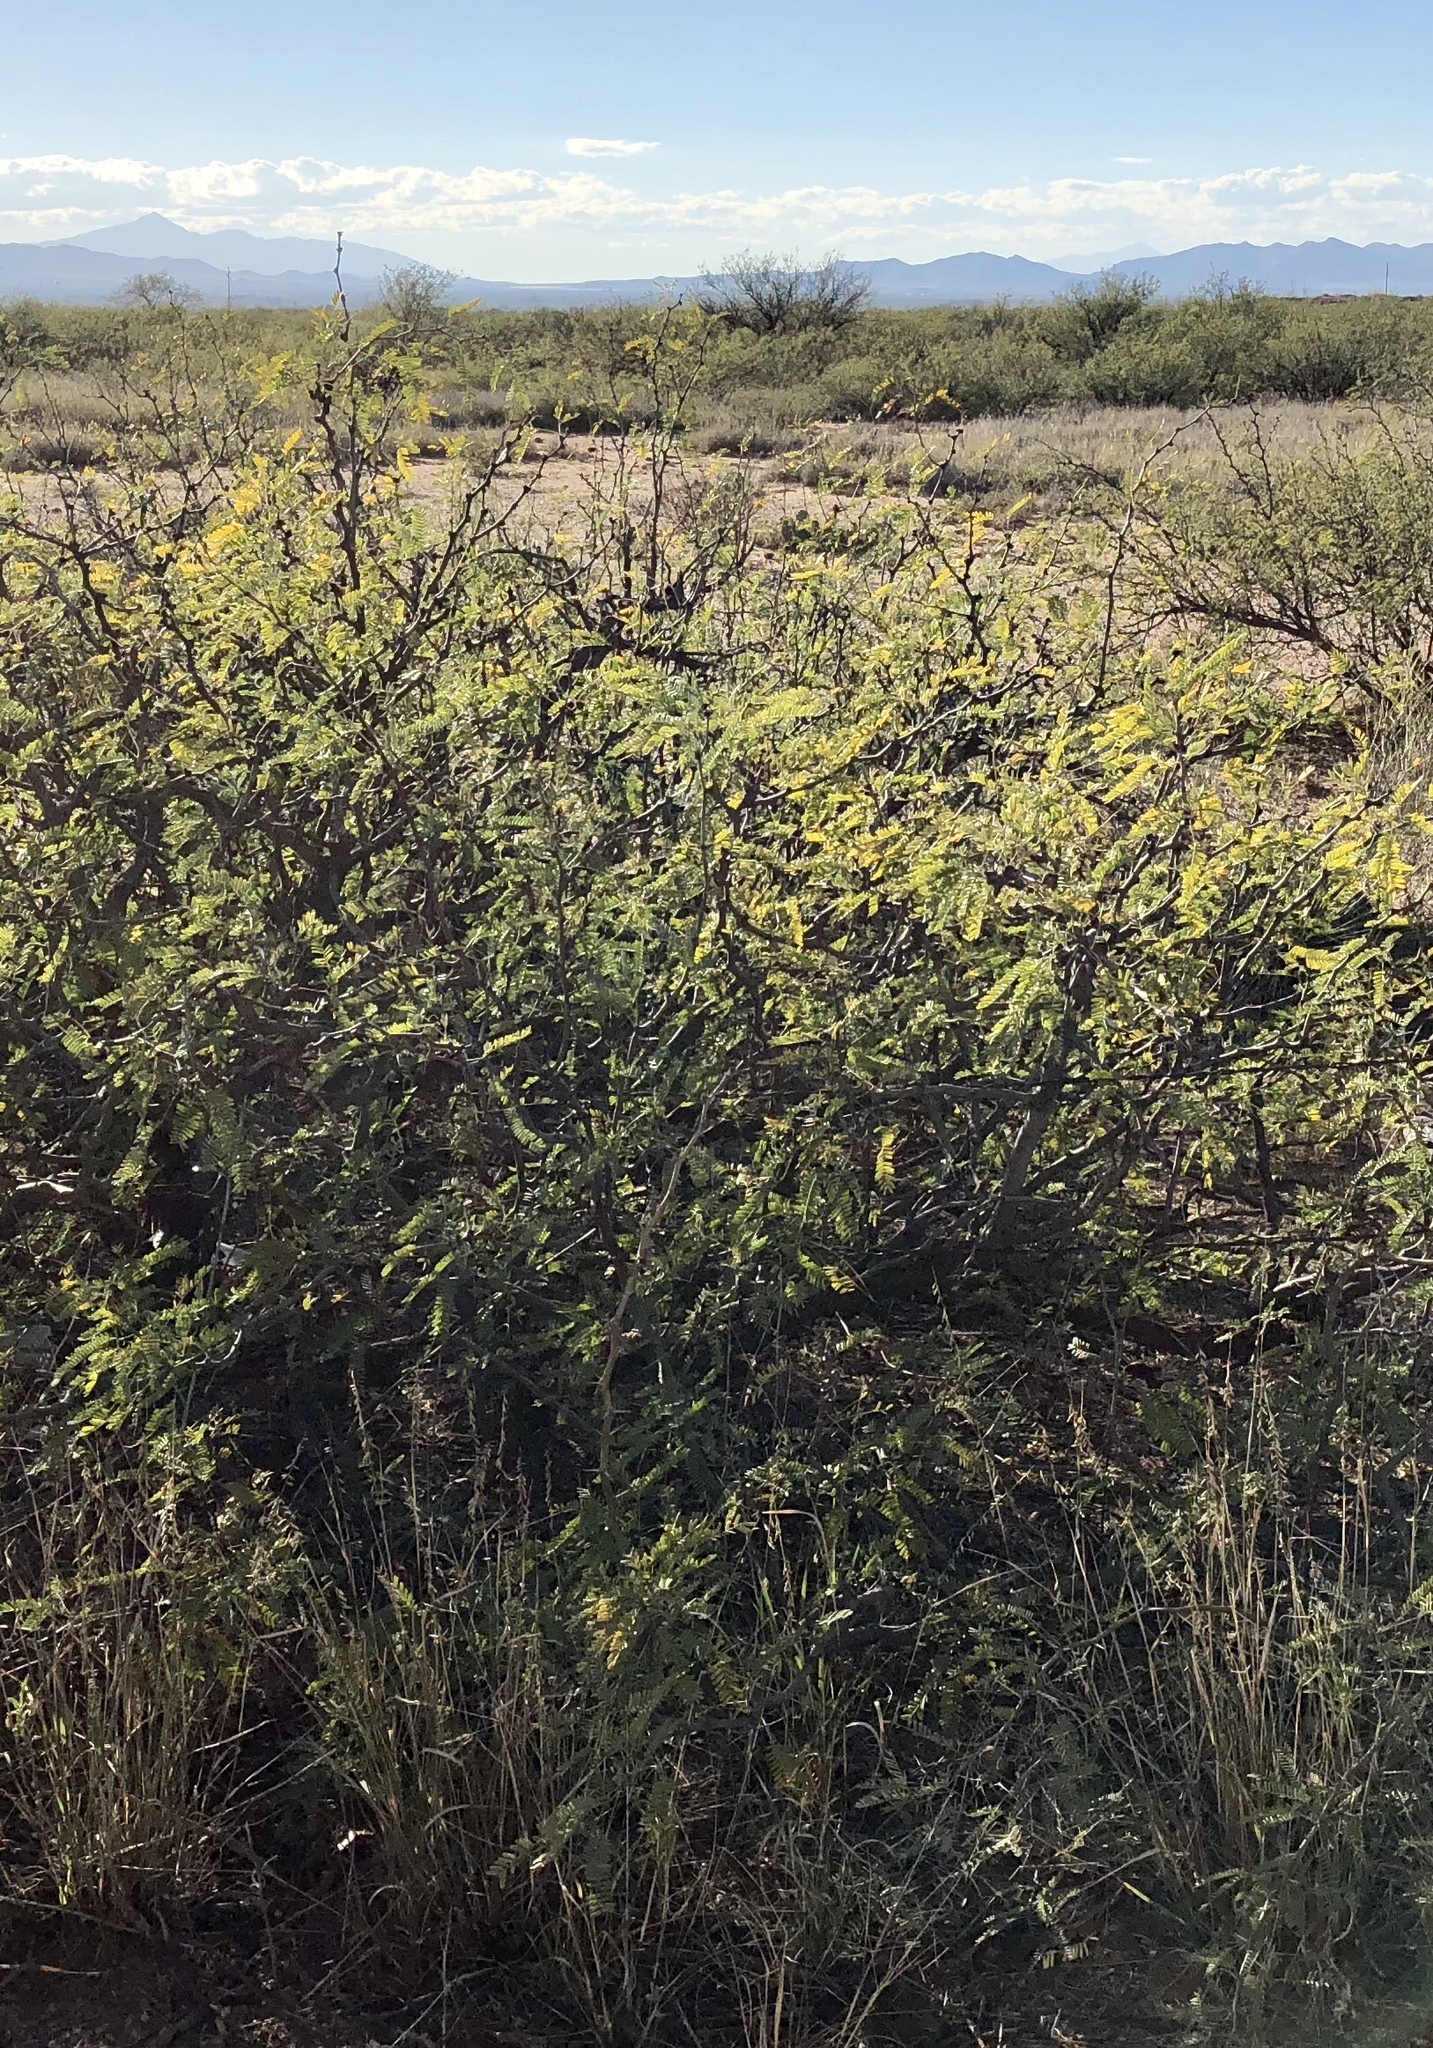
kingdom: Plantae
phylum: Tracheophyta
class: Magnoliopsida
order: Fabales
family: Fabaceae
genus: Prosopis
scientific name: Prosopis glandulosa
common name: Honey mesquite
